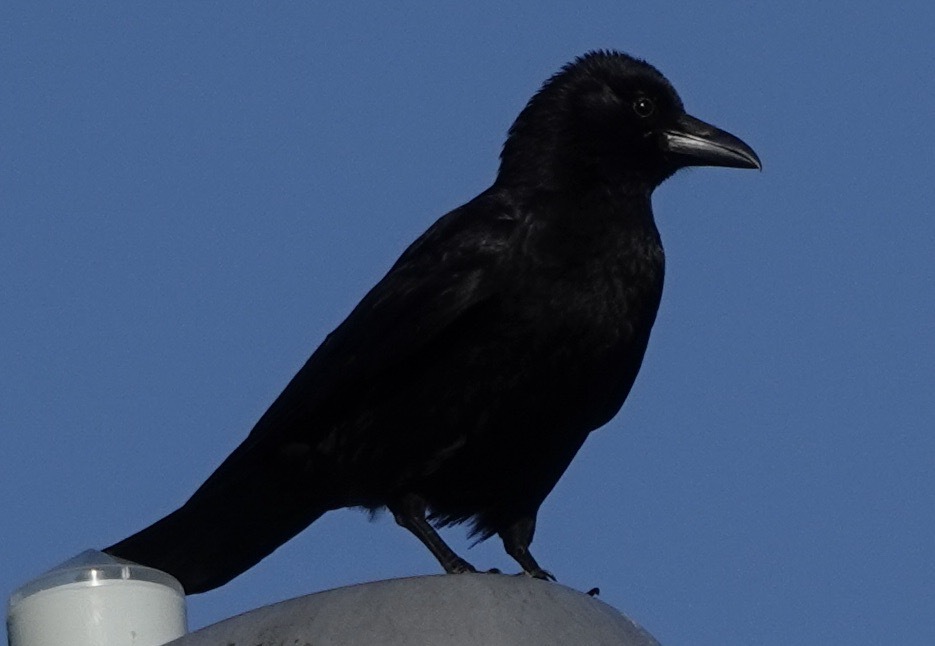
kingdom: Animalia
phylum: Chordata
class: Aves
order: Passeriformes
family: Corvidae
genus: Corvus
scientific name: Corvus corone
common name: Carrion crow
